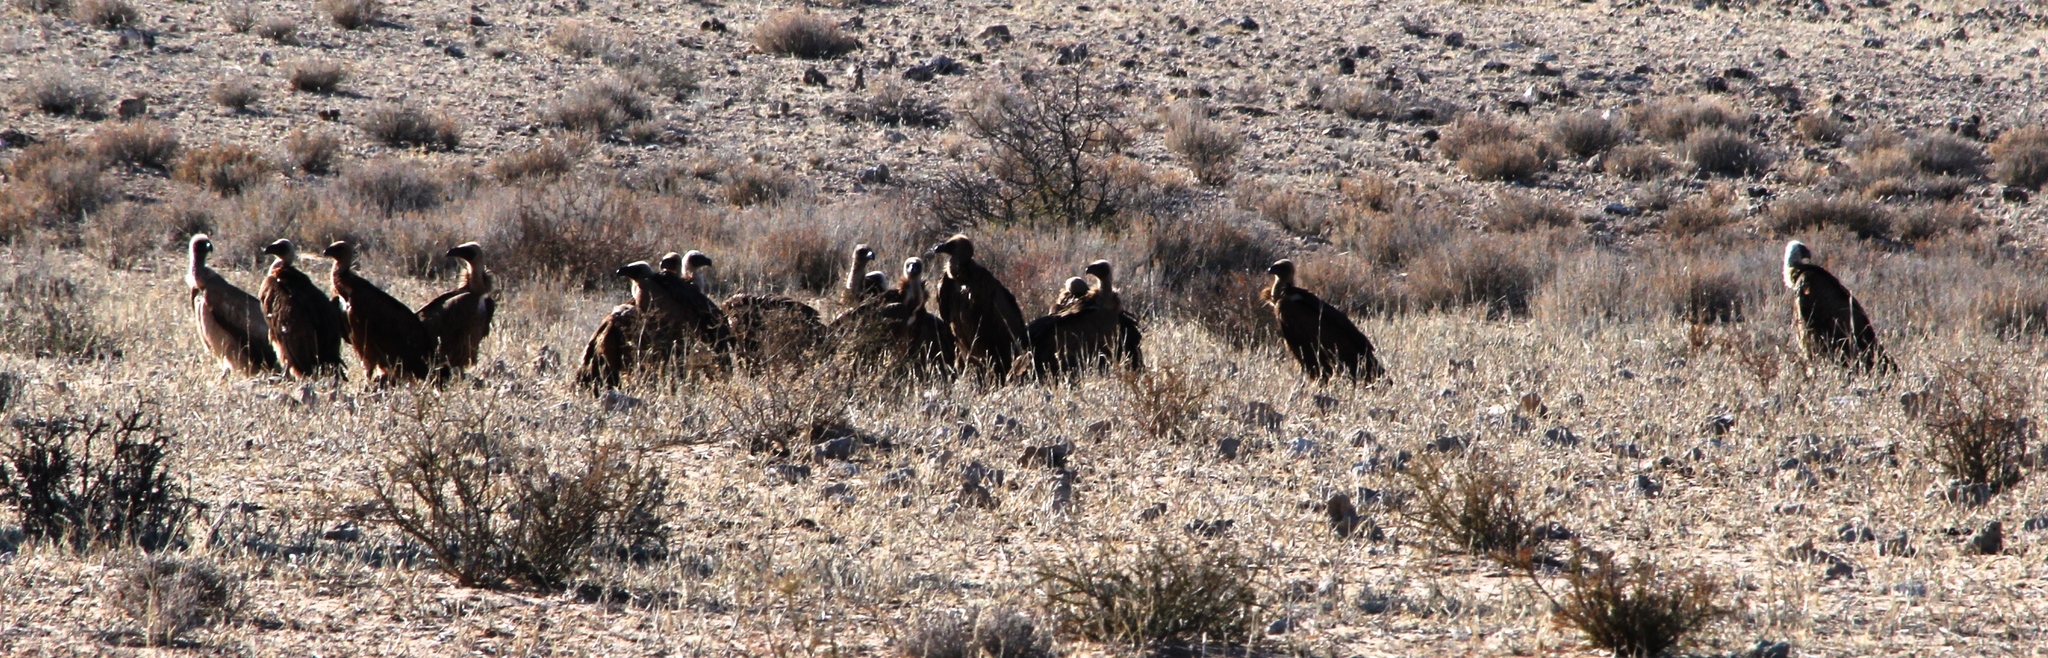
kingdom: Animalia
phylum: Chordata
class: Aves
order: Accipitriformes
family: Accipitridae
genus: Gyps
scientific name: Gyps africanus
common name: White-backed vulture
